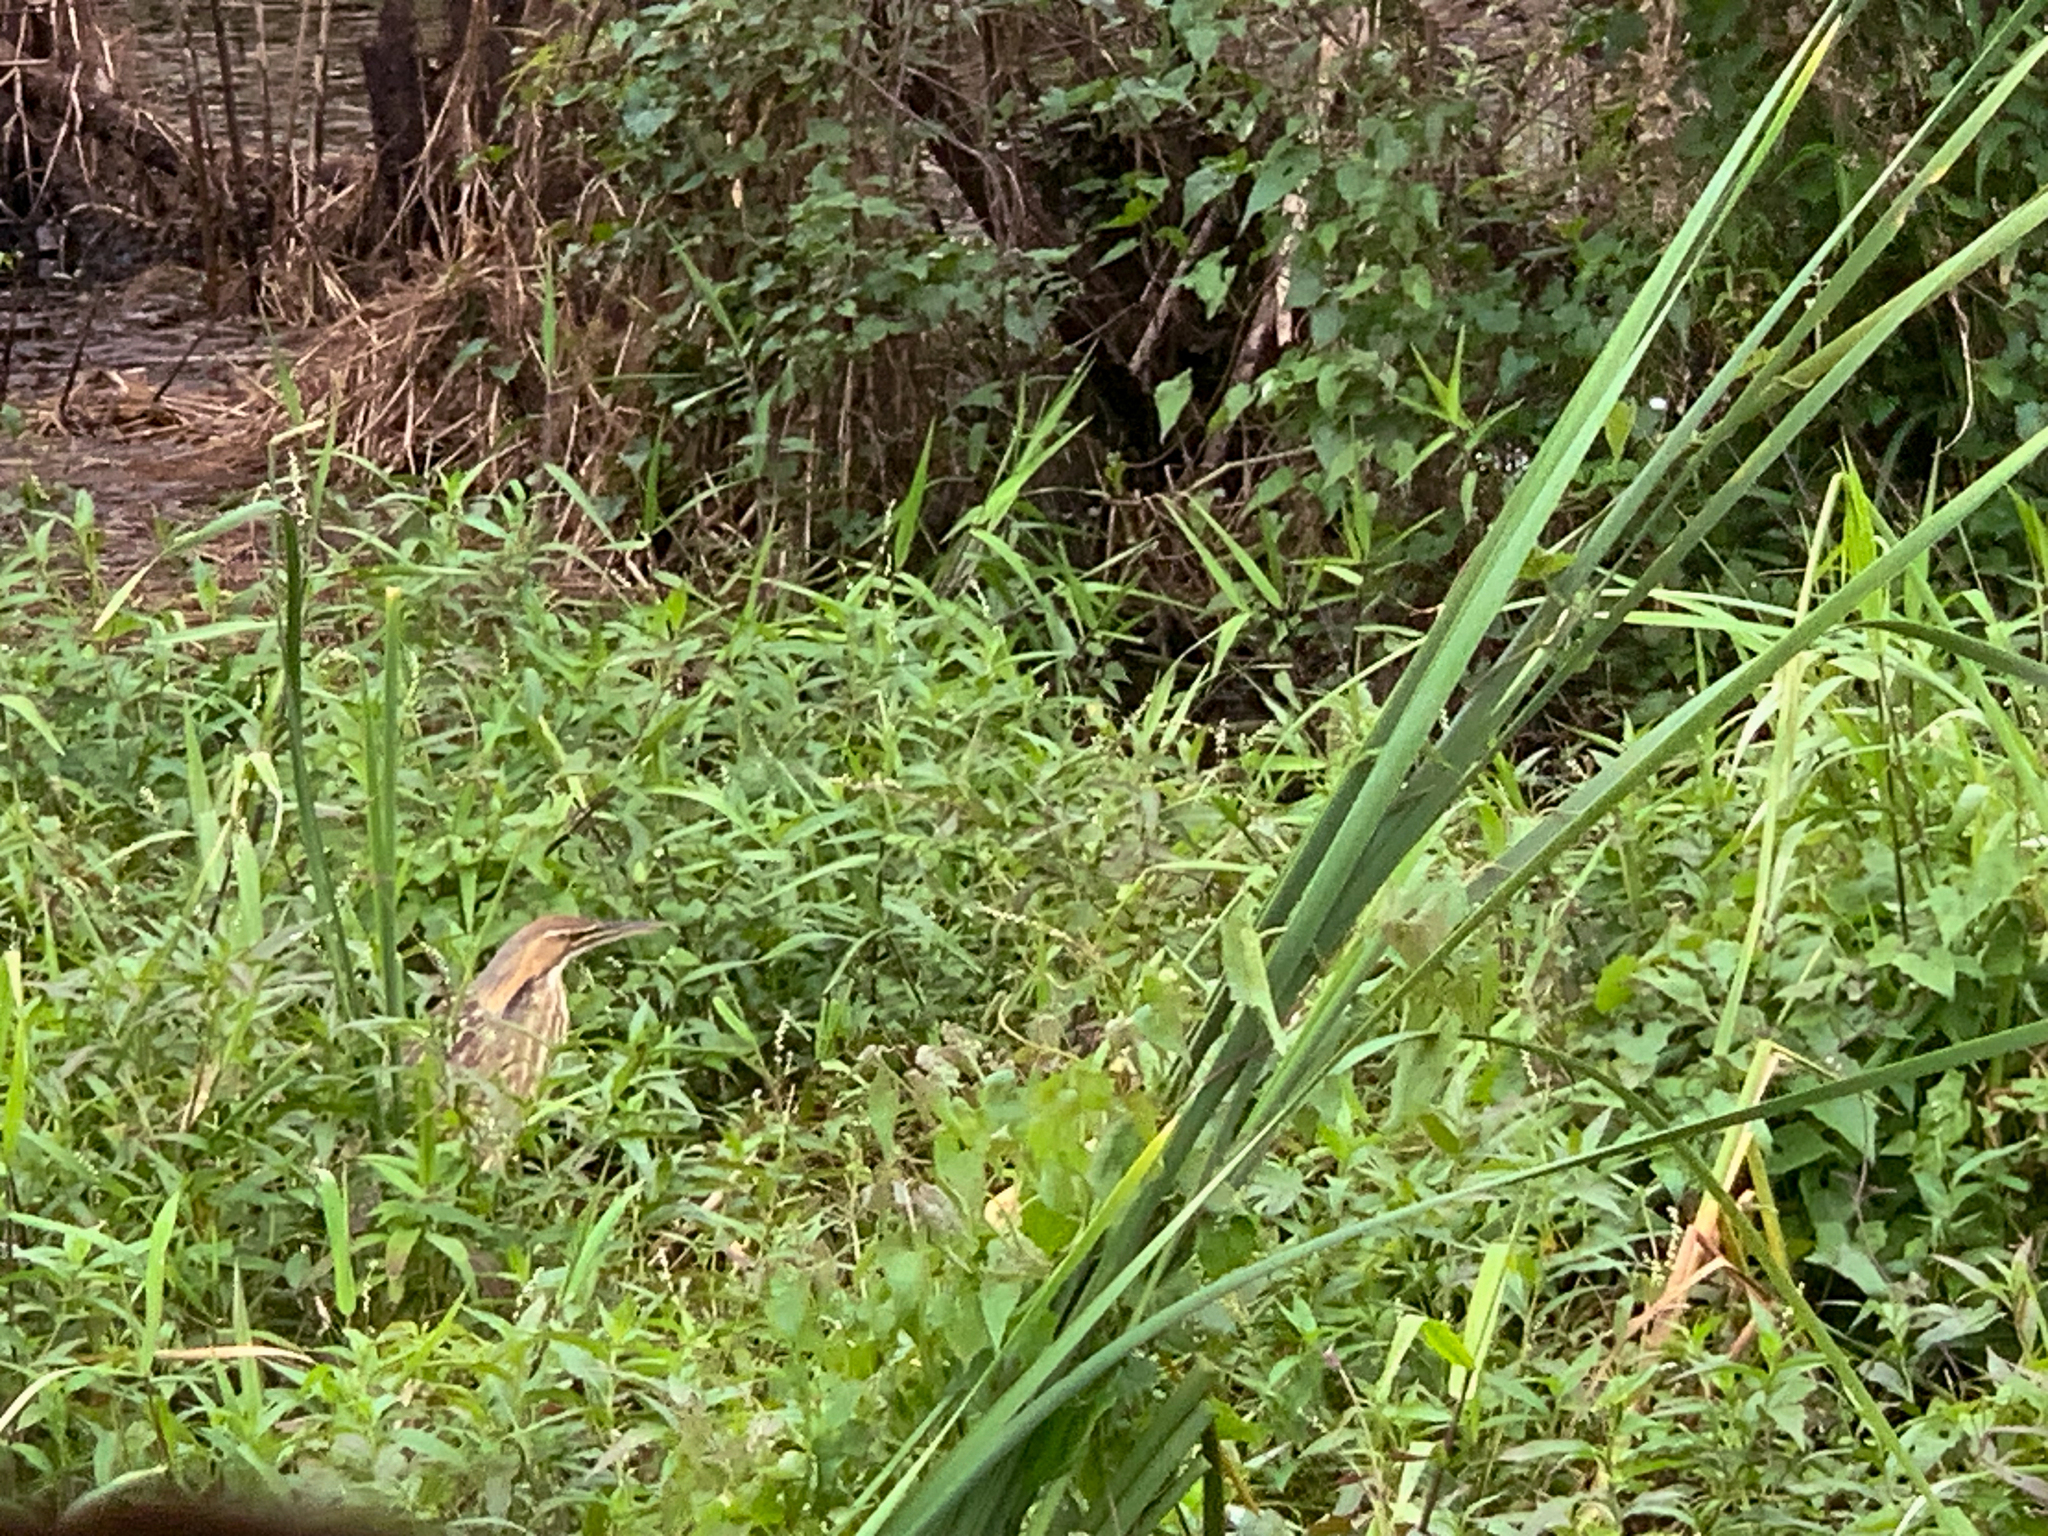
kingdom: Animalia
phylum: Chordata
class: Aves
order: Pelecaniformes
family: Ardeidae
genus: Botaurus
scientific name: Botaurus lentiginosus
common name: American bittern
